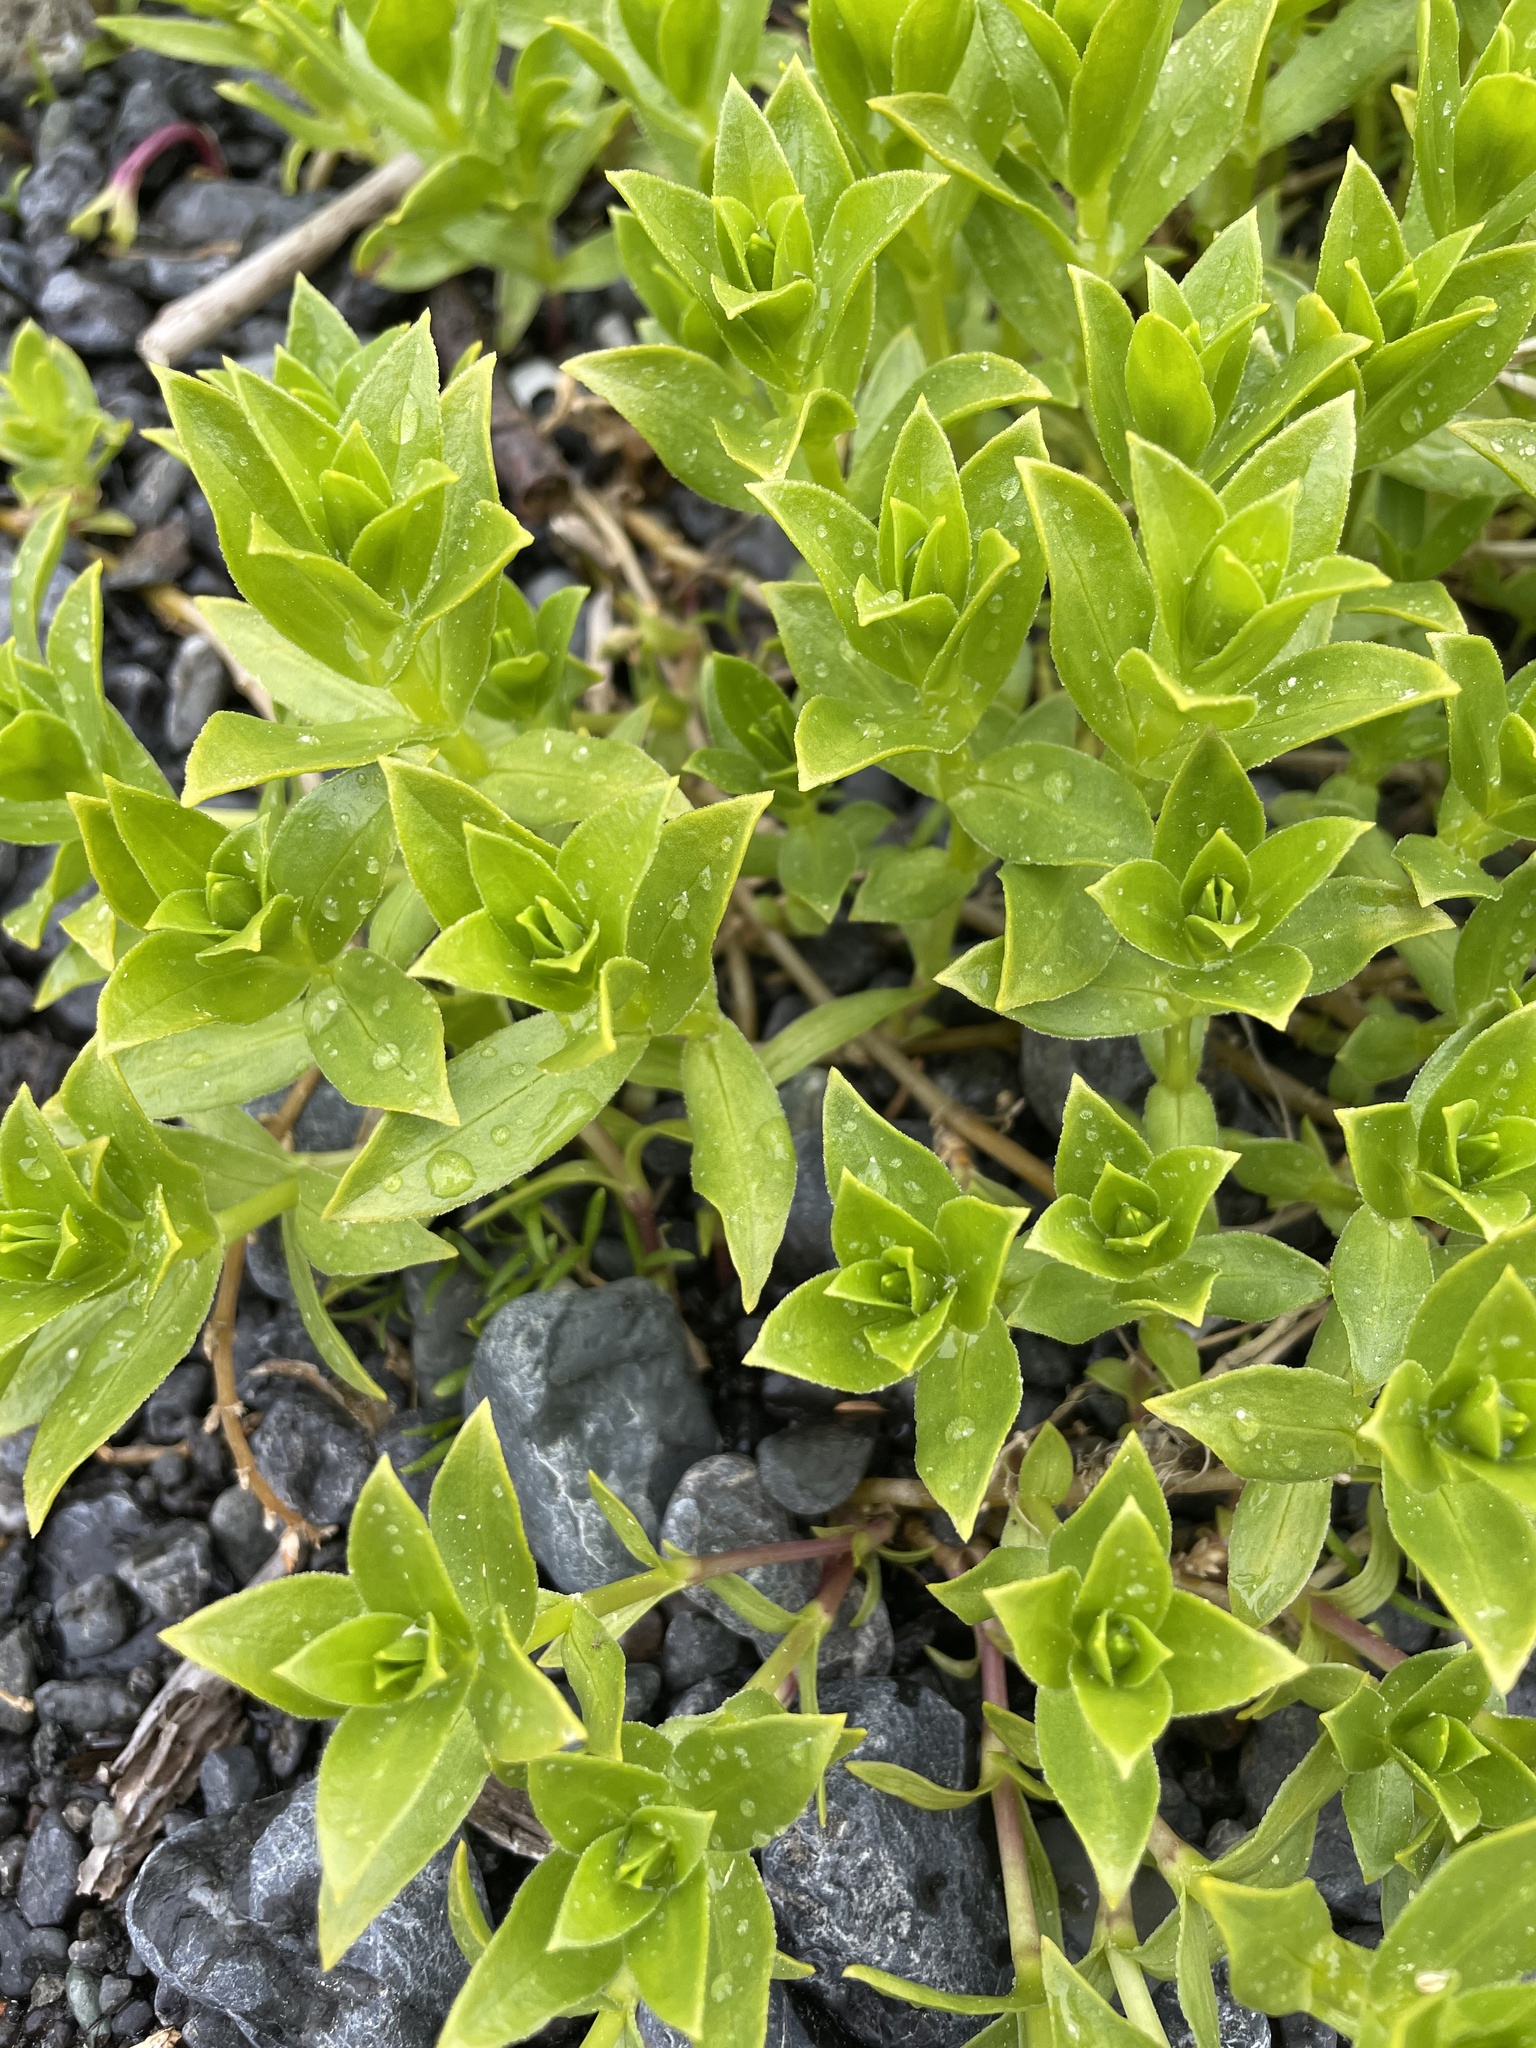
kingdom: Plantae
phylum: Tracheophyta
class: Magnoliopsida
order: Caryophyllales
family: Caryophyllaceae
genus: Honckenya
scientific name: Honckenya peploides
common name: Sea sandwort
